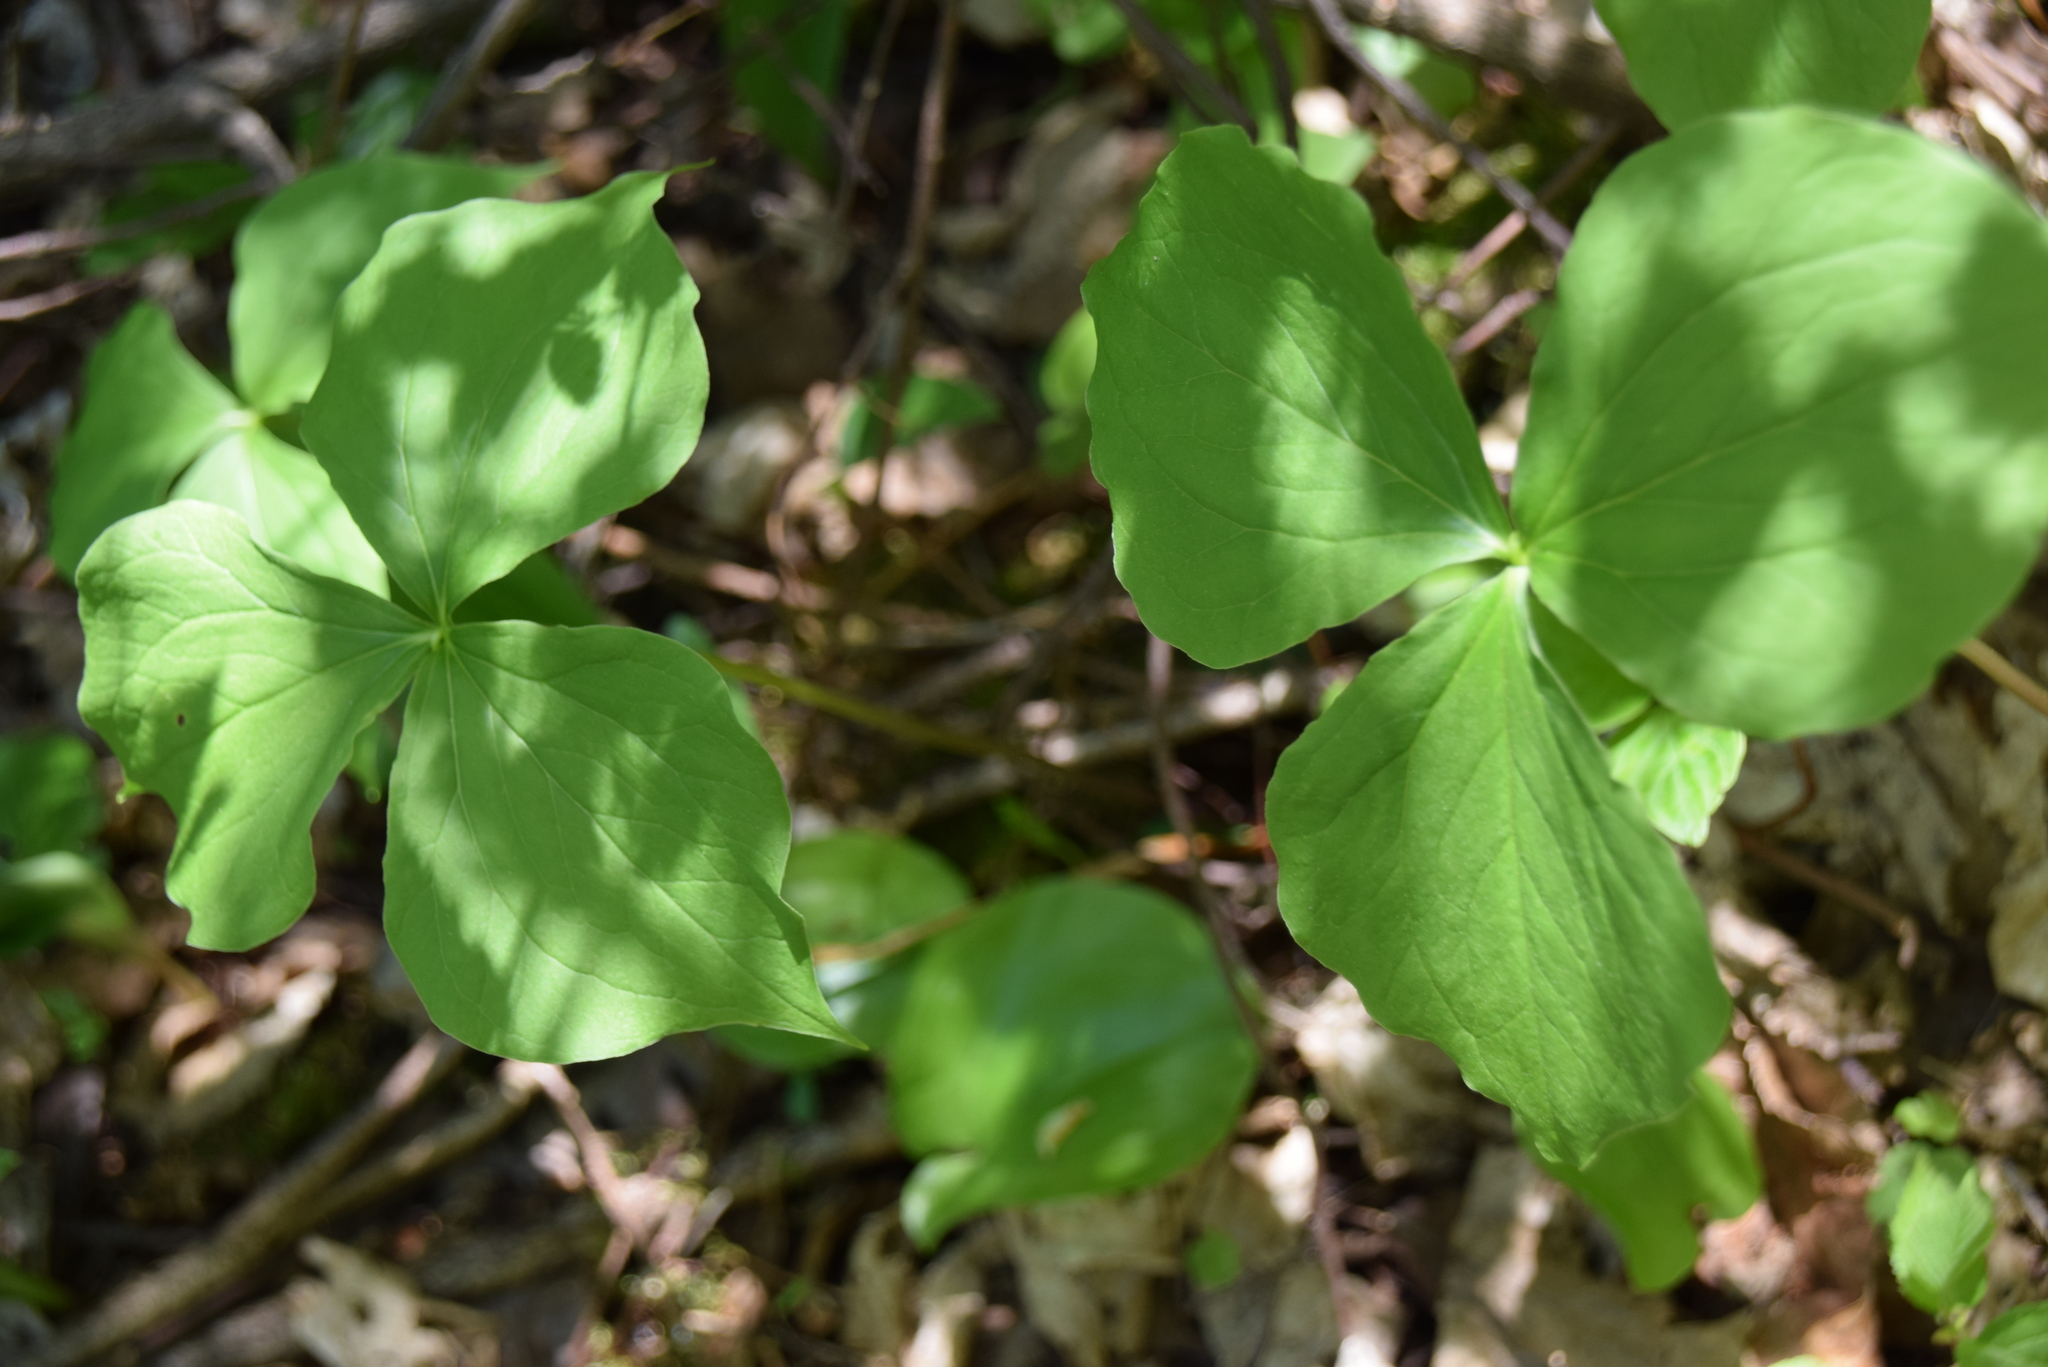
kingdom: Plantae
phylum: Tracheophyta
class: Liliopsida
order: Liliales
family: Melanthiaceae
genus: Trillium
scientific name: Trillium cernuum
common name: Nodding trillium
